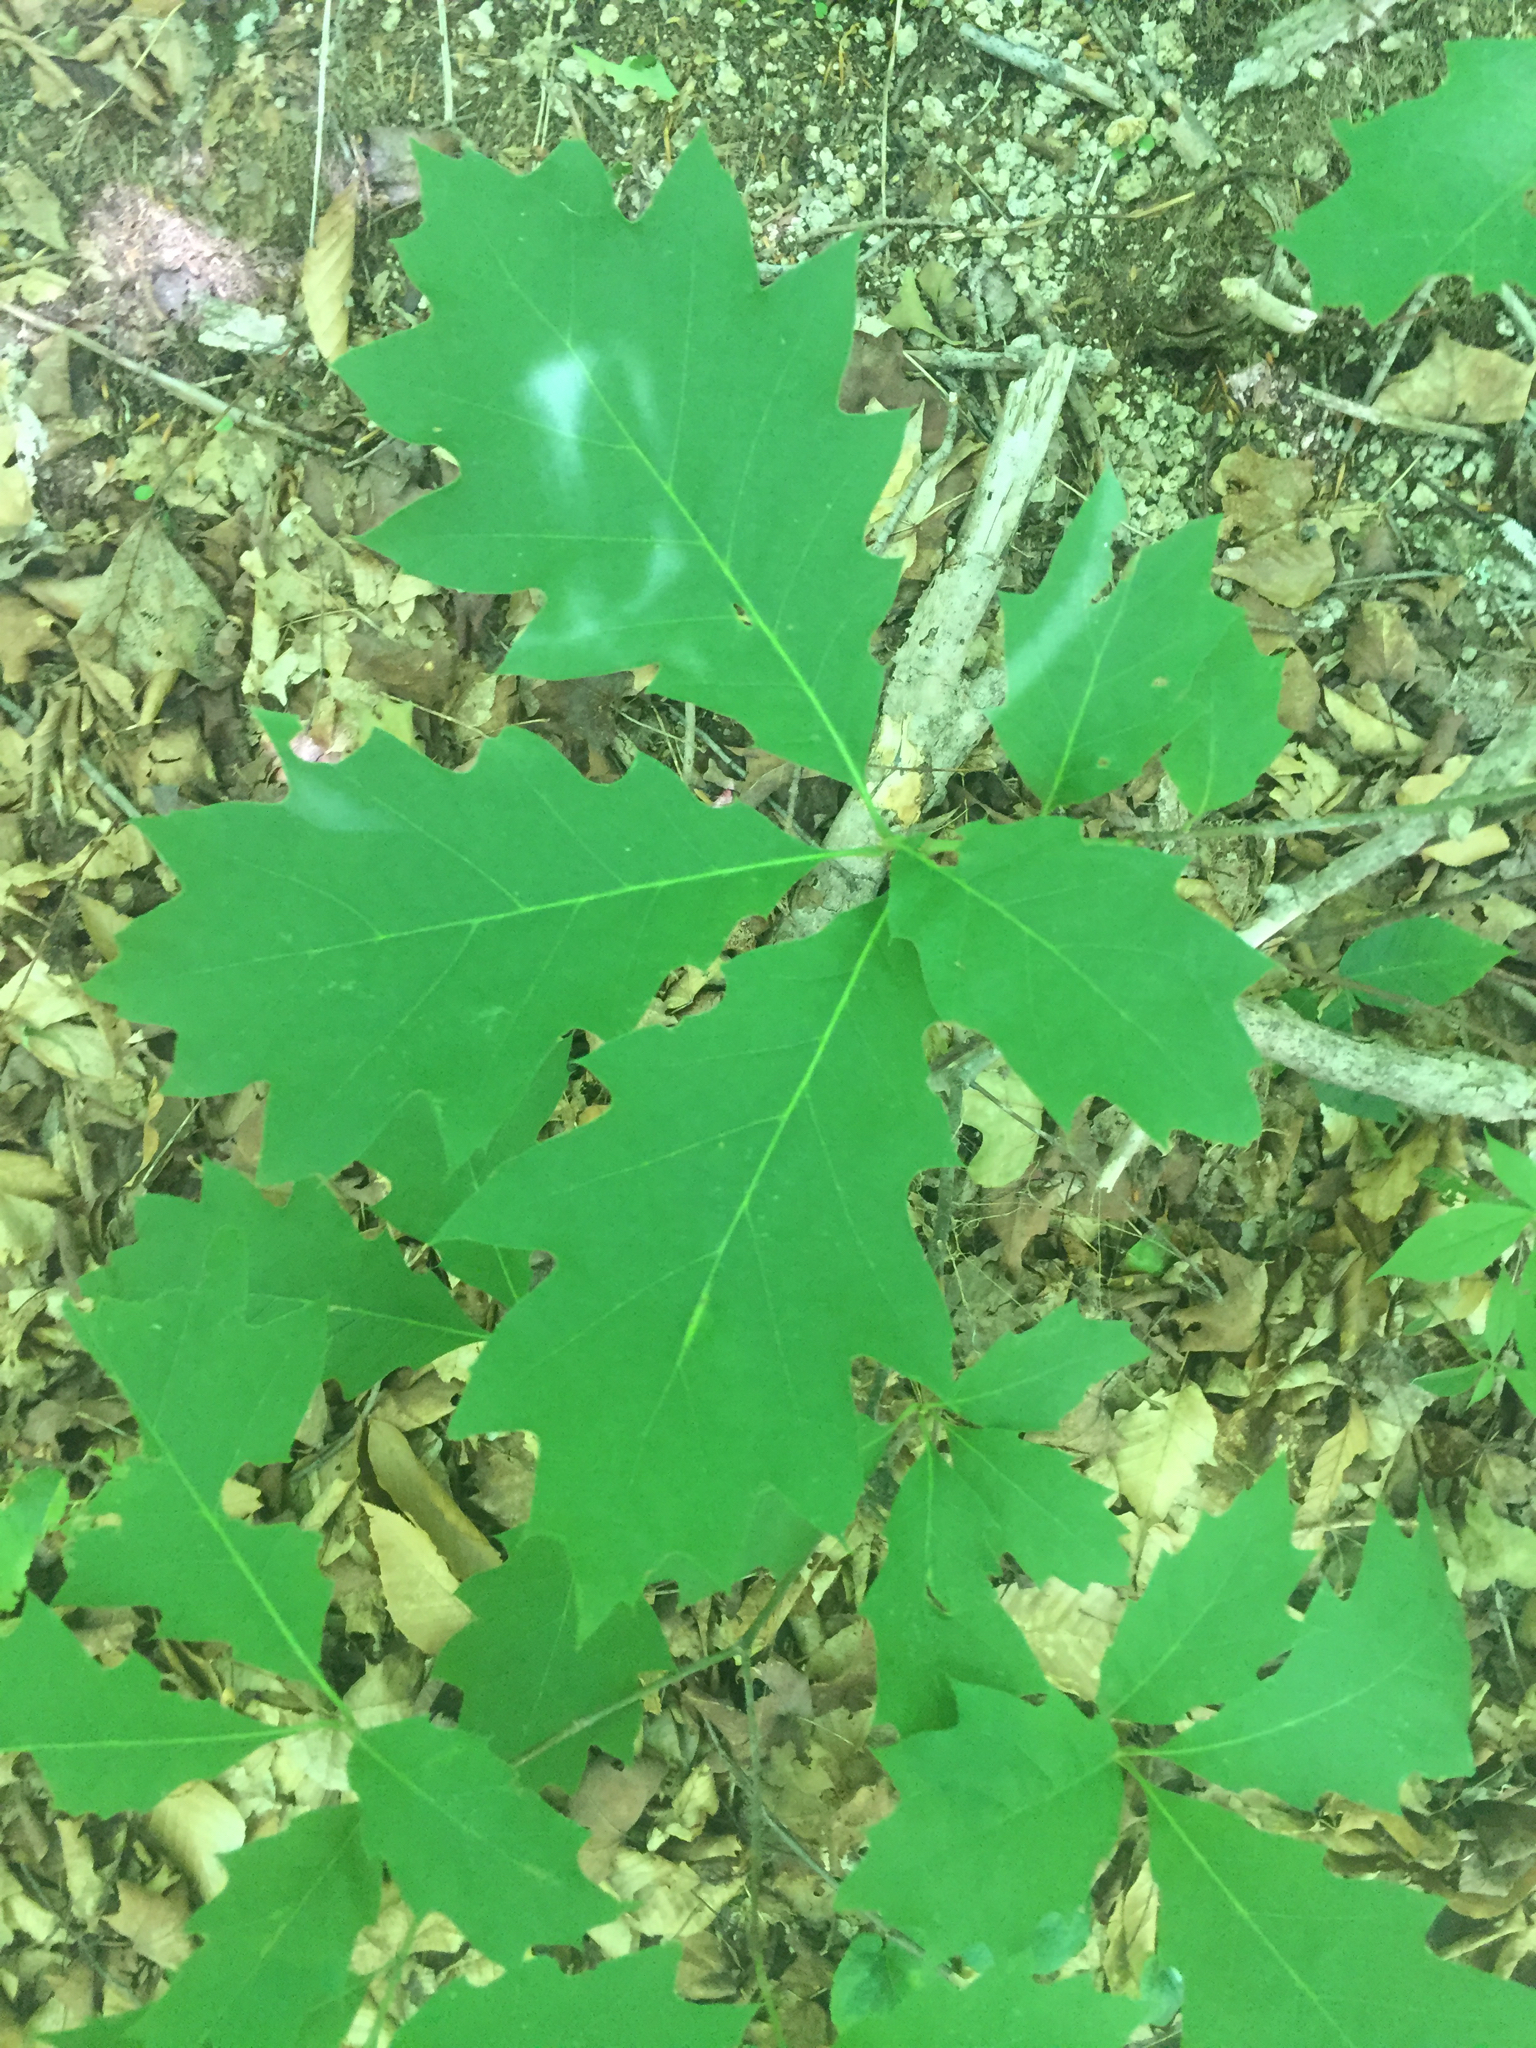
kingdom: Plantae
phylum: Tracheophyta
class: Magnoliopsida
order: Fagales
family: Fagaceae
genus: Quercus
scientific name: Quercus rubra
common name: Red oak
